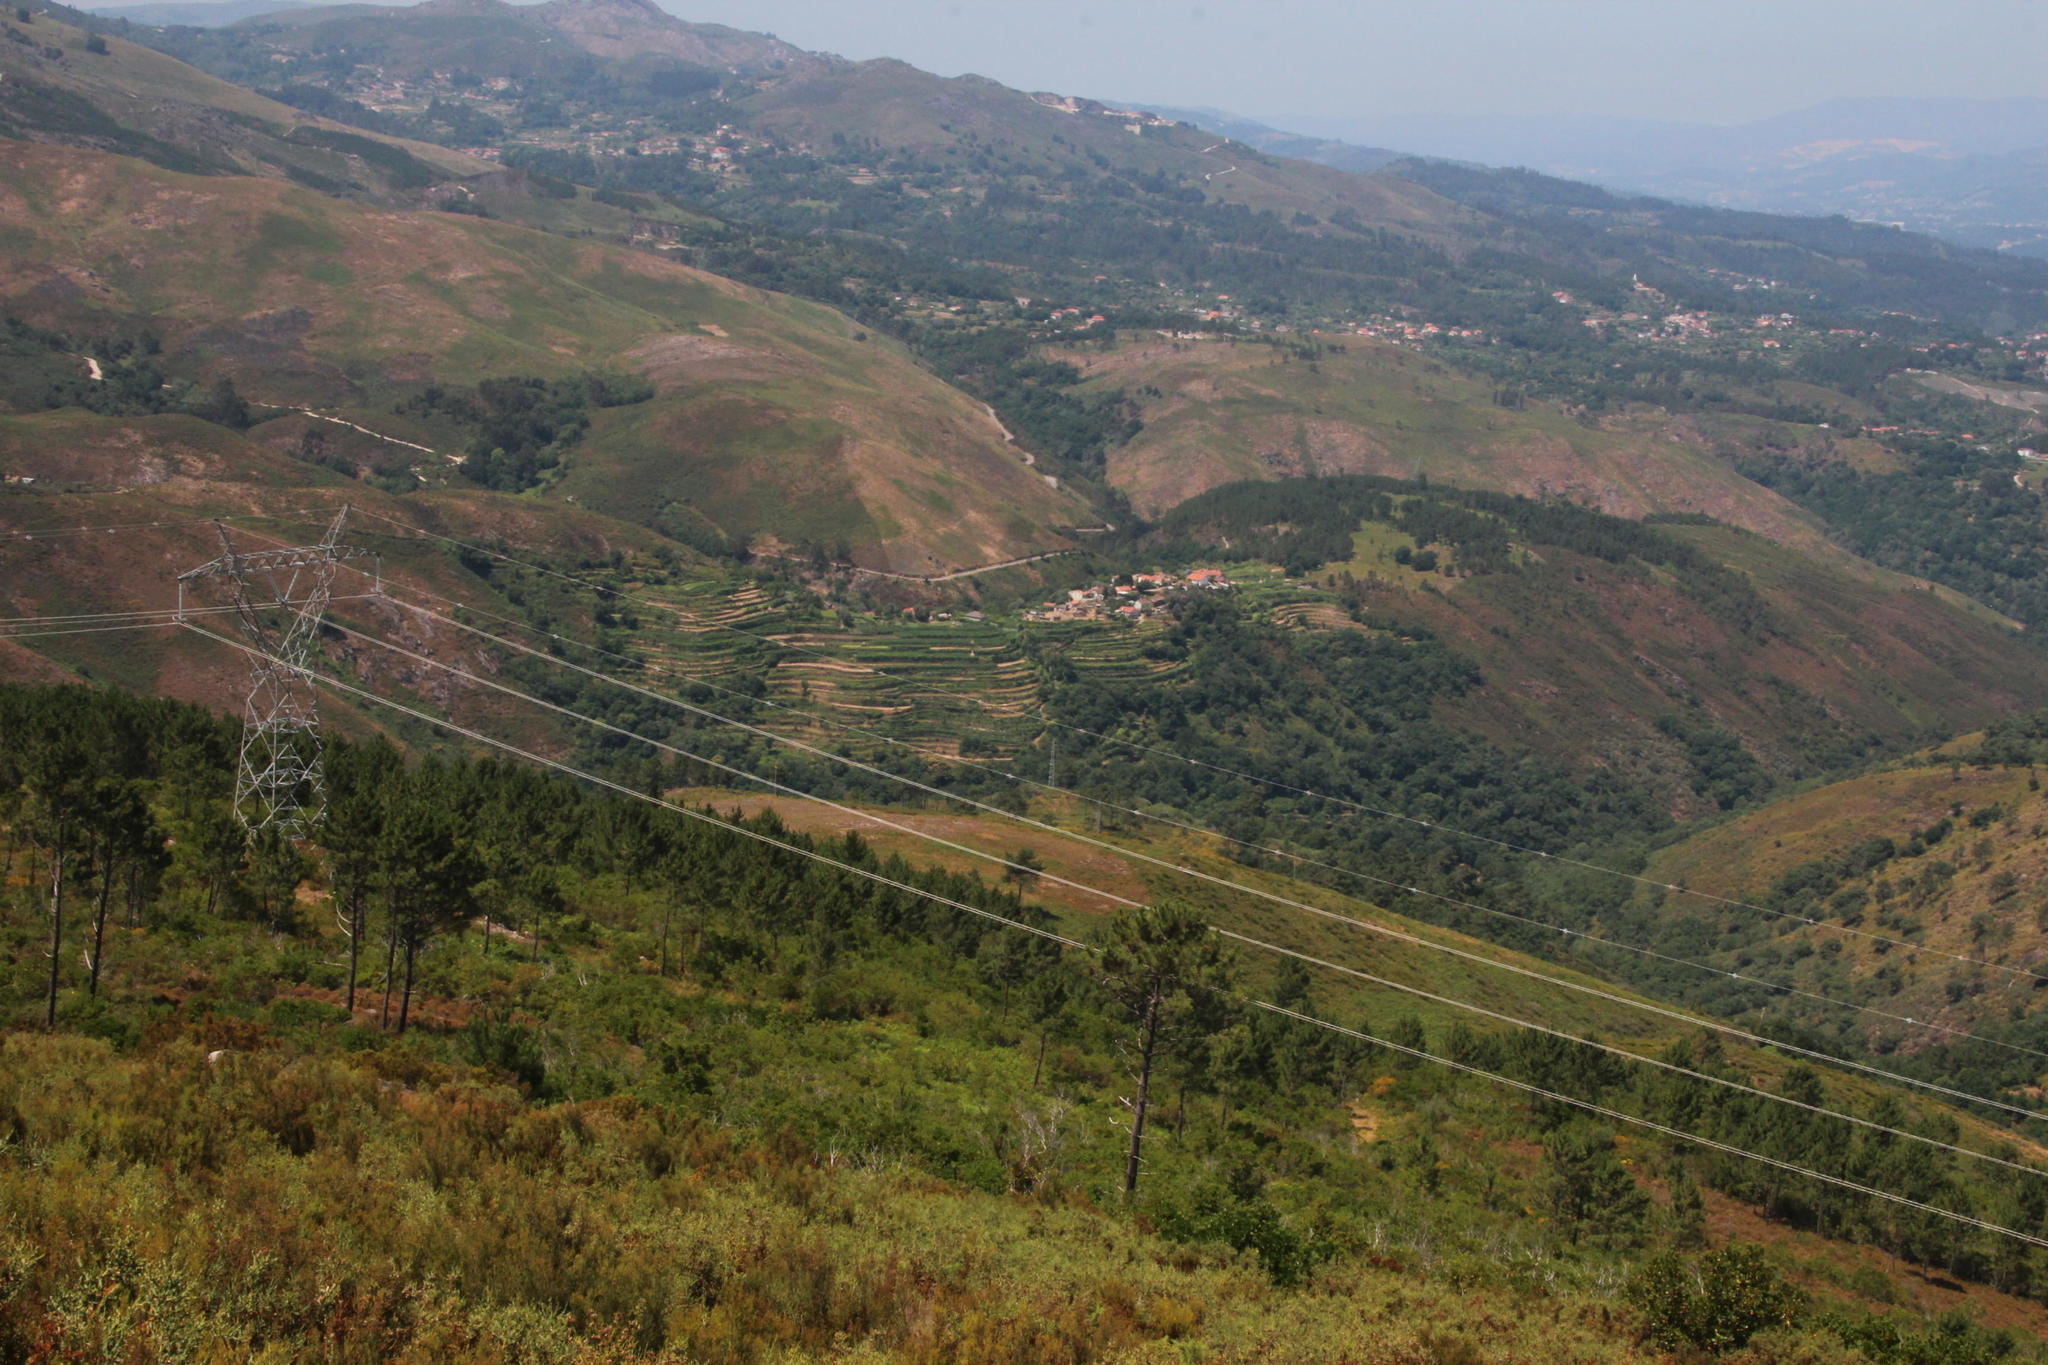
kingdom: Plantae
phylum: Tracheophyta
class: Pinopsida
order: Pinales
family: Pinaceae
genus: Pinus
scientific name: Pinus pinaster
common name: Maritime pine
